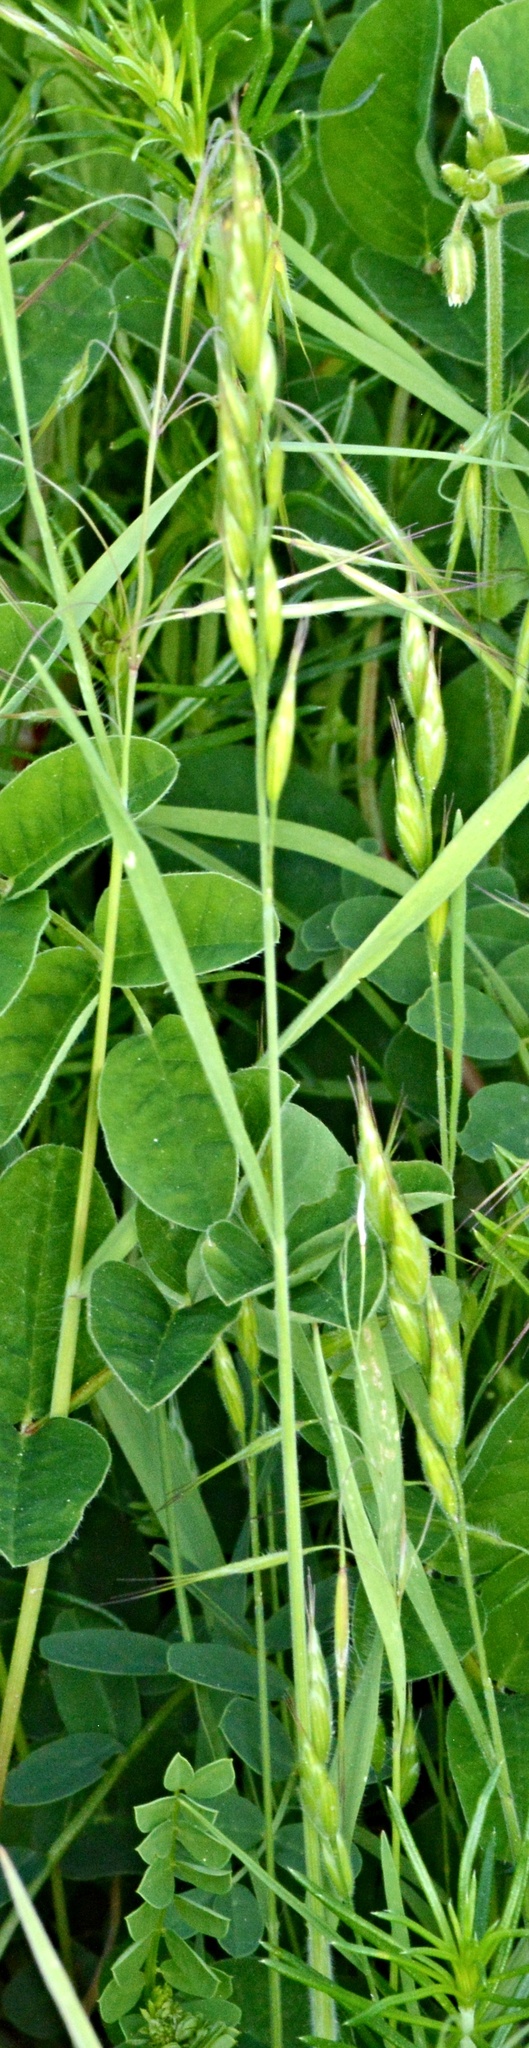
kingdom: Plantae
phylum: Tracheophyta
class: Liliopsida
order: Poales
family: Poaceae
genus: Bromus
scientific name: Bromus hordeaceus
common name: Soft brome
